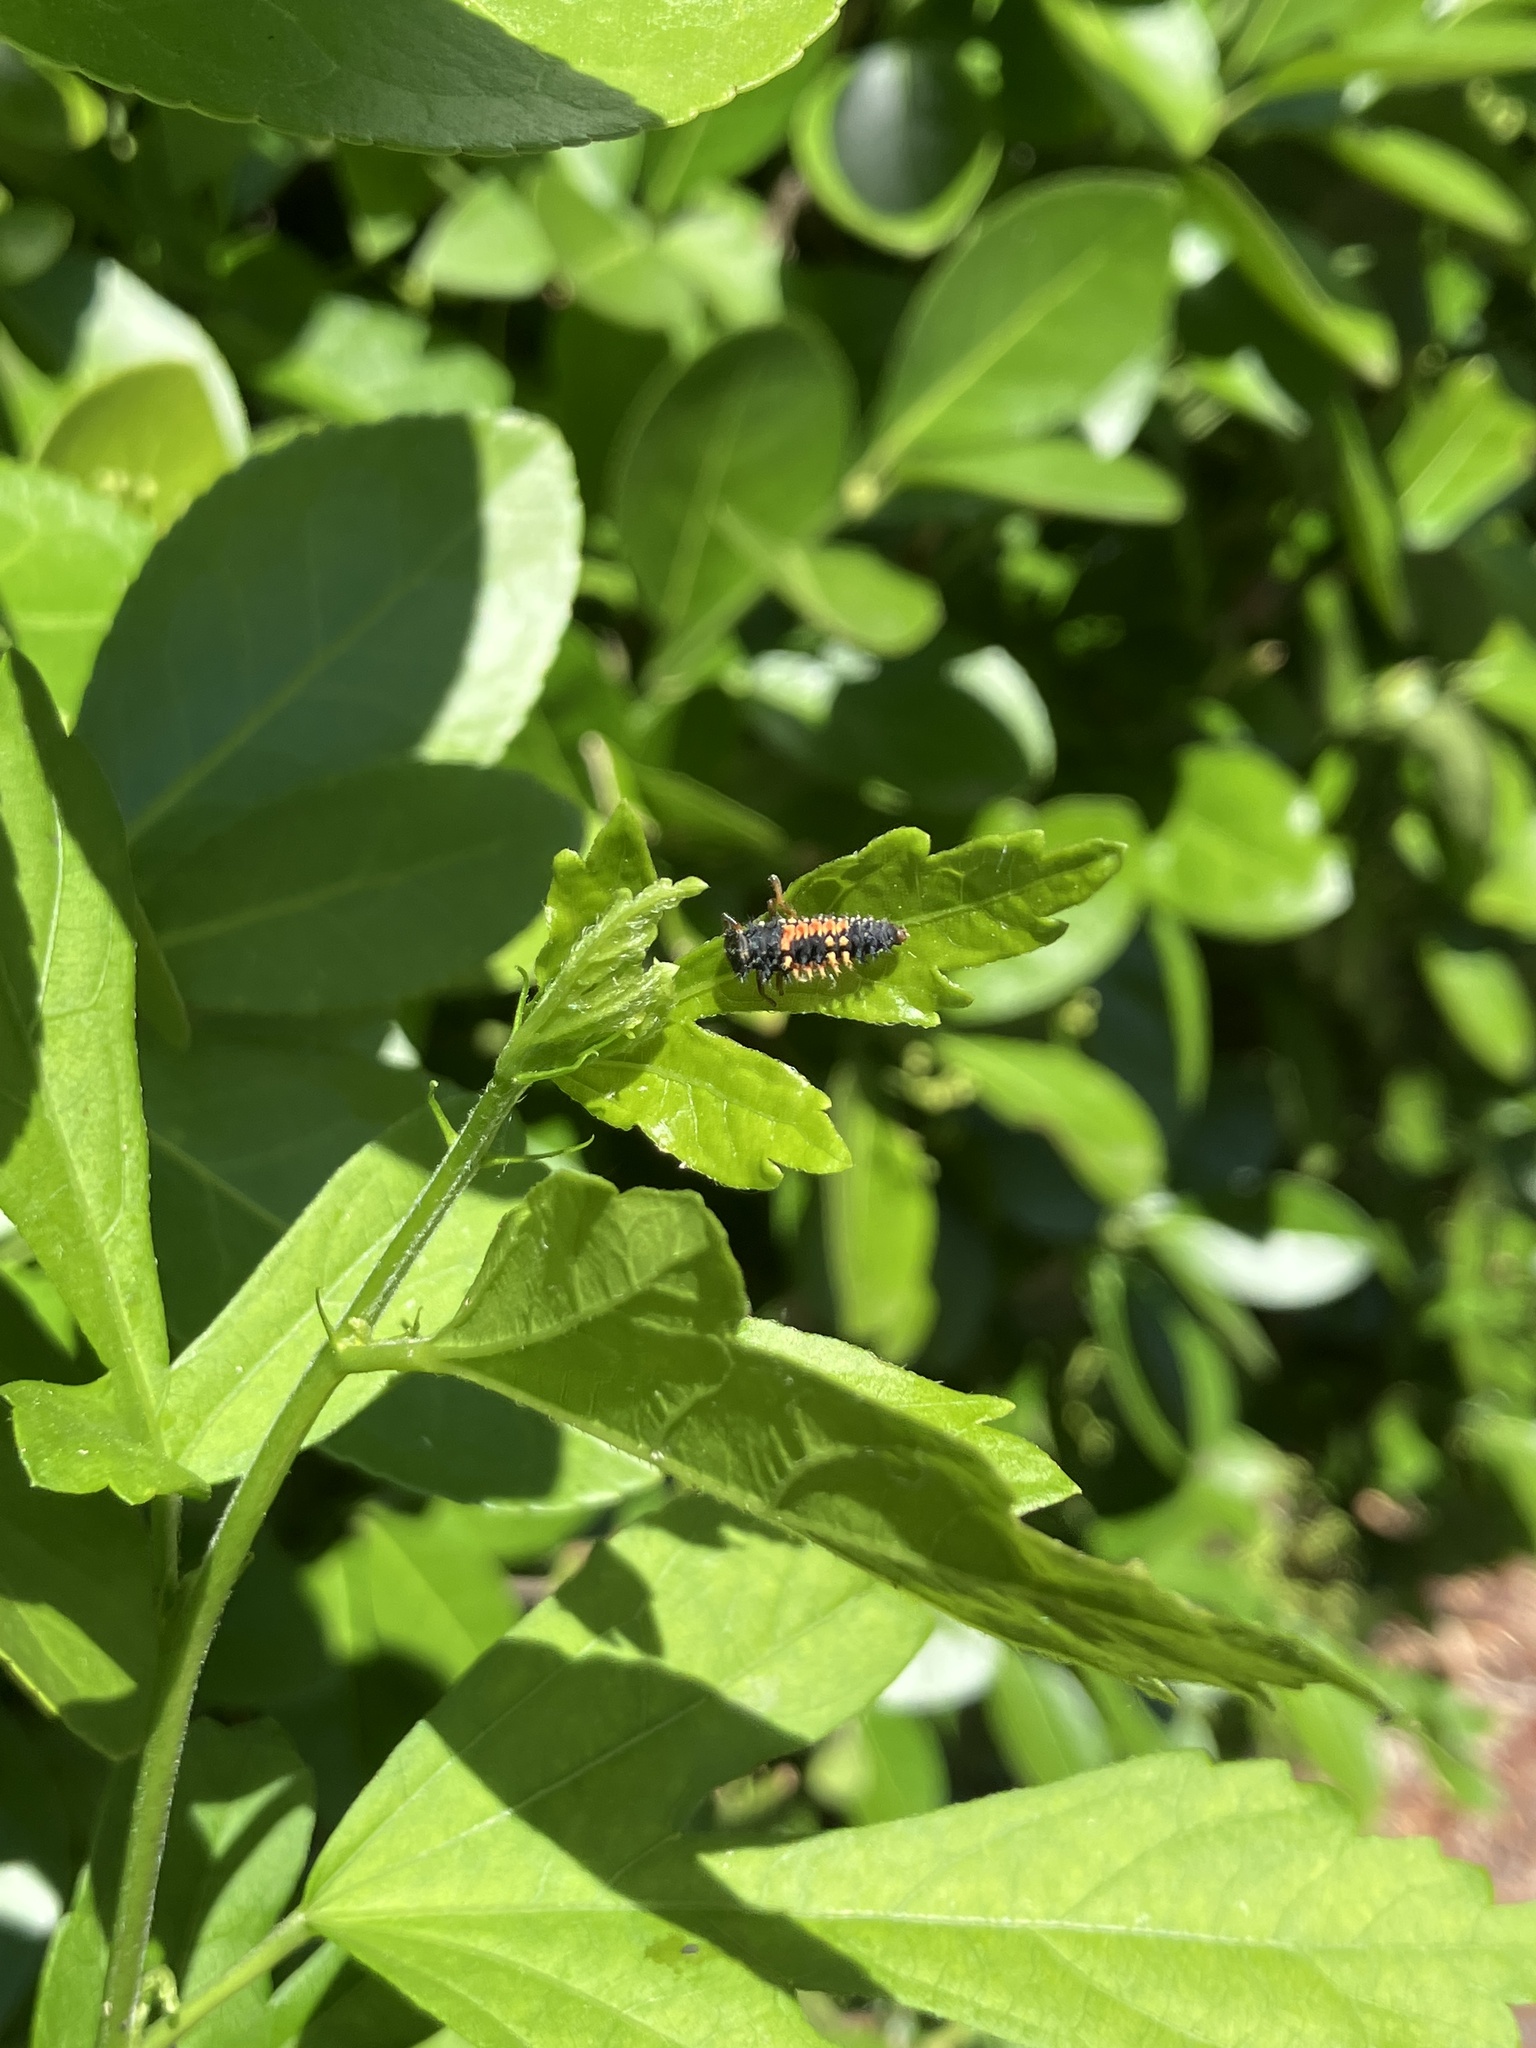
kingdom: Animalia
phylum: Arthropoda
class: Insecta
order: Coleoptera
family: Coccinellidae
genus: Harmonia
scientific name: Harmonia axyridis
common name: Harlequin ladybird
